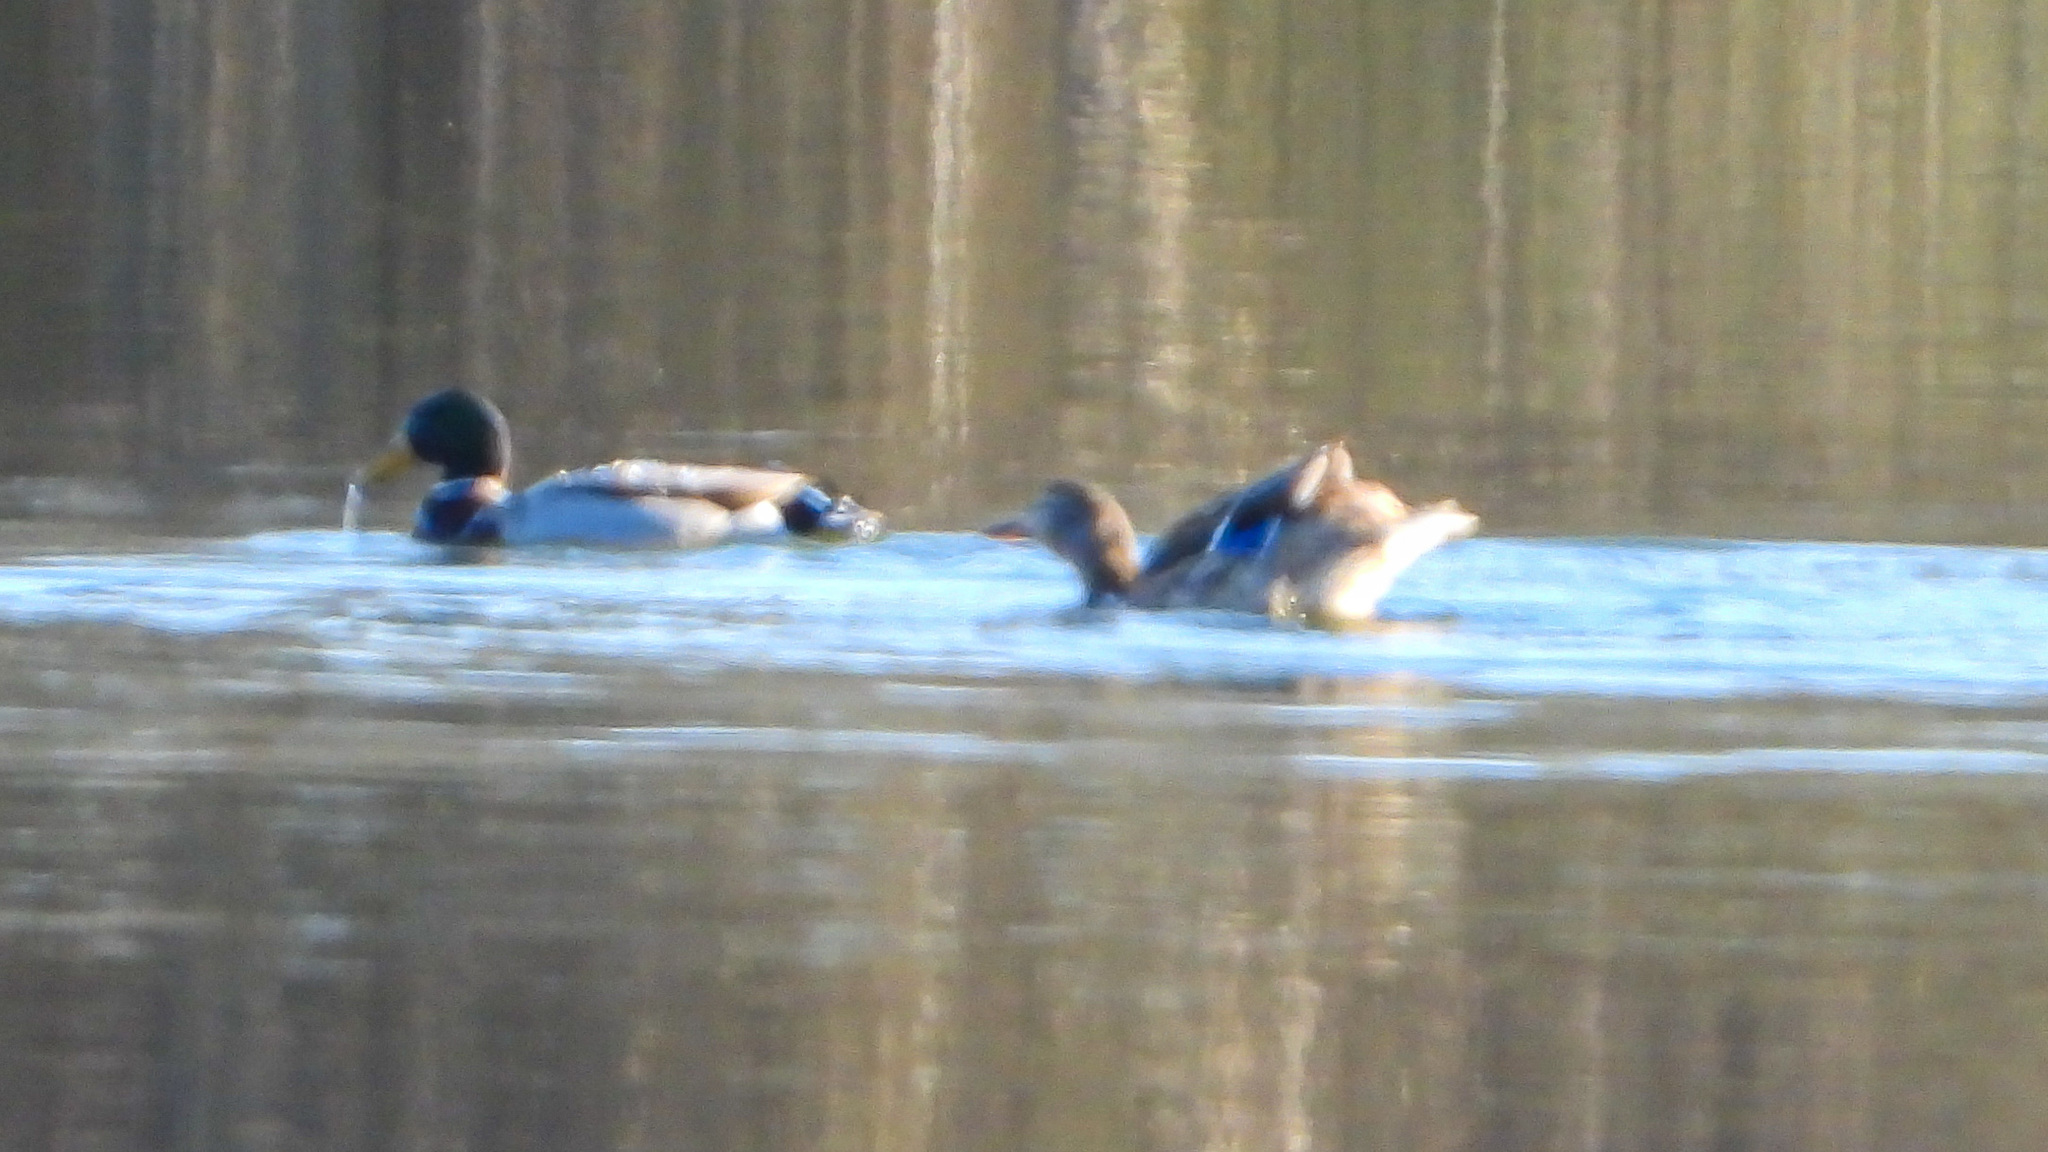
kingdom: Animalia
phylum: Chordata
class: Aves
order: Anseriformes
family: Anatidae
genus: Anas
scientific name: Anas platyrhynchos
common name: Mallard
